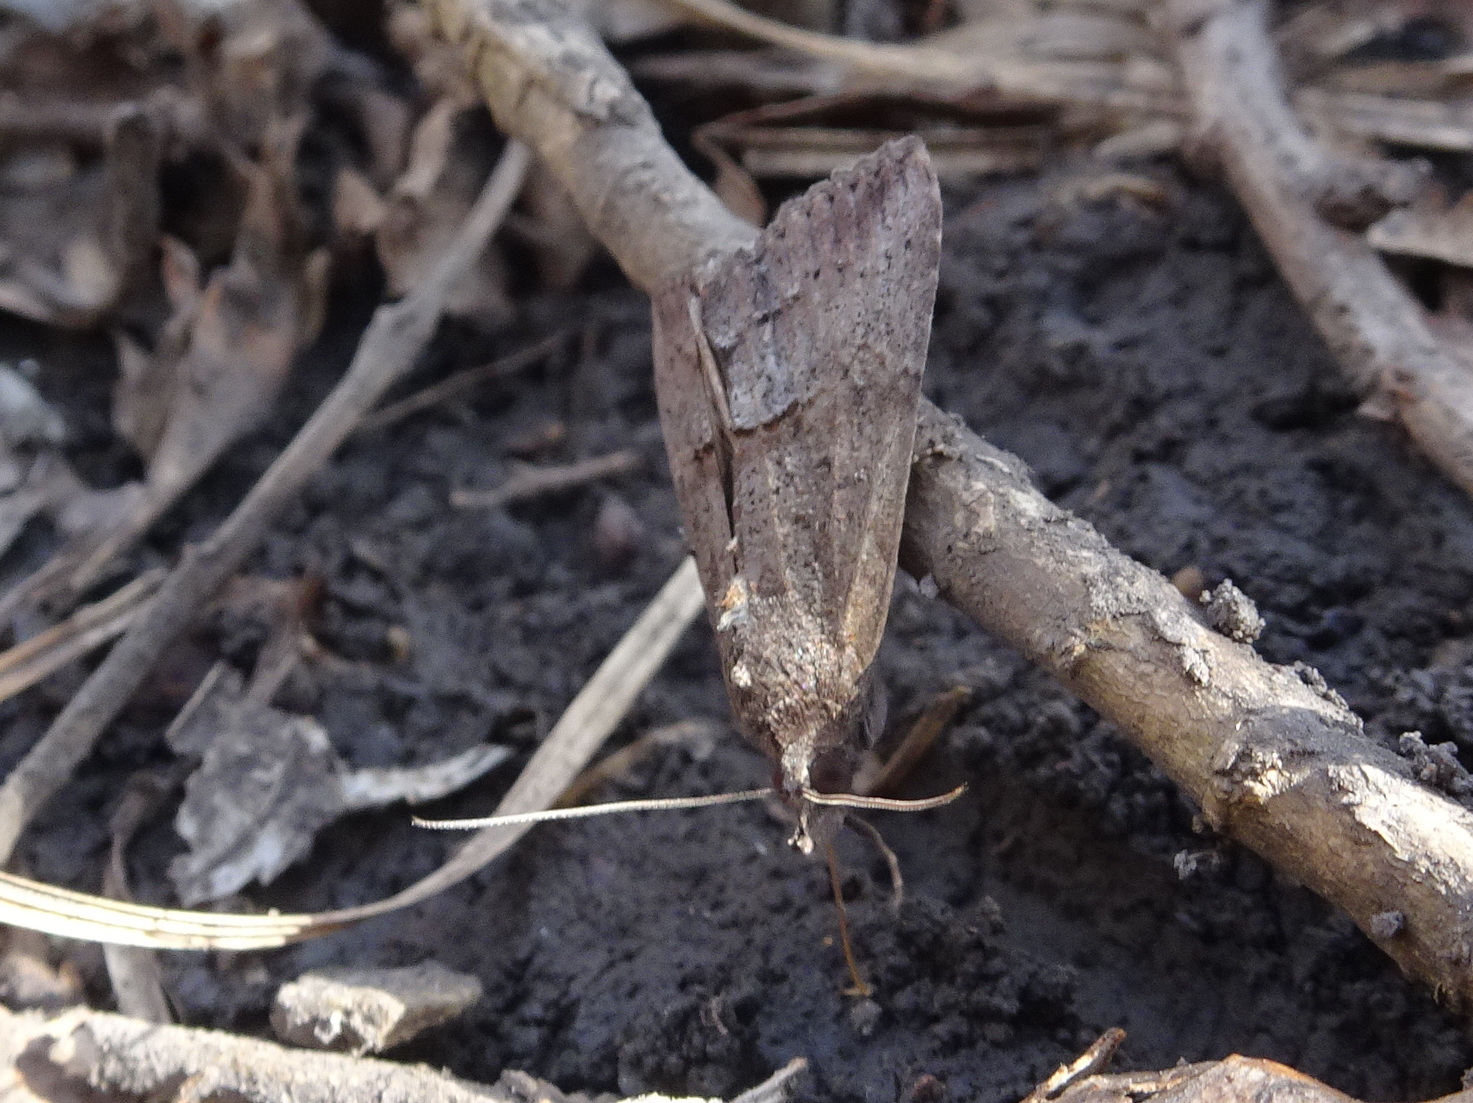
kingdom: Animalia
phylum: Arthropoda
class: Insecta
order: Lepidoptera
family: Erebidae
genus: Hypena
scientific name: Hypena scabra
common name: Green cloverworm
